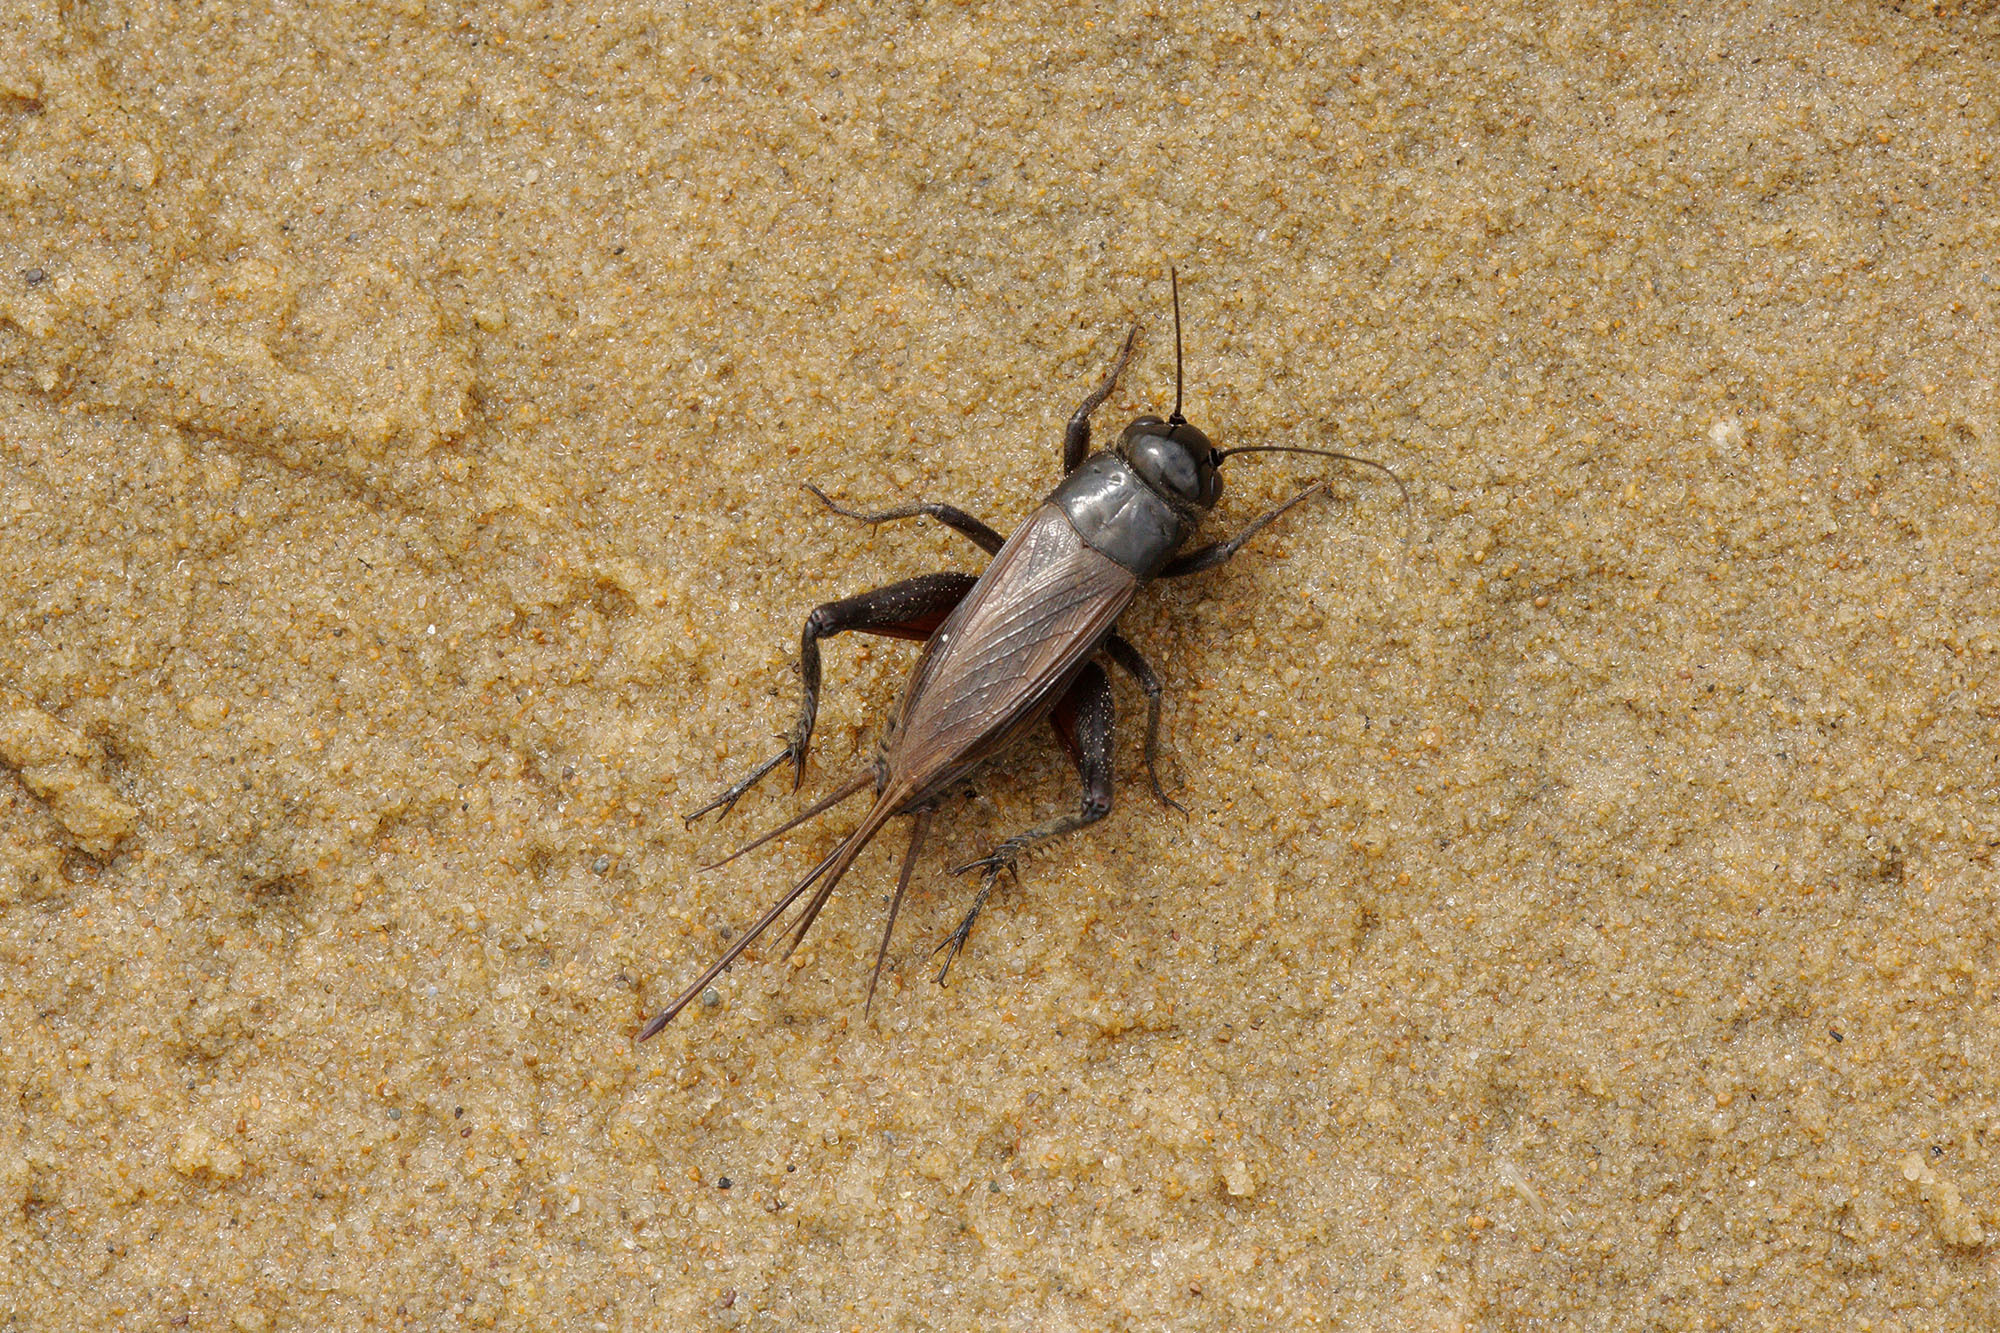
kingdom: Animalia
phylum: Arthropoda
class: Insecta
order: Orthoptera
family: Gryllidae
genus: Teleogryllus
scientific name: Teleogryllus commodus
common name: Black field cricket
